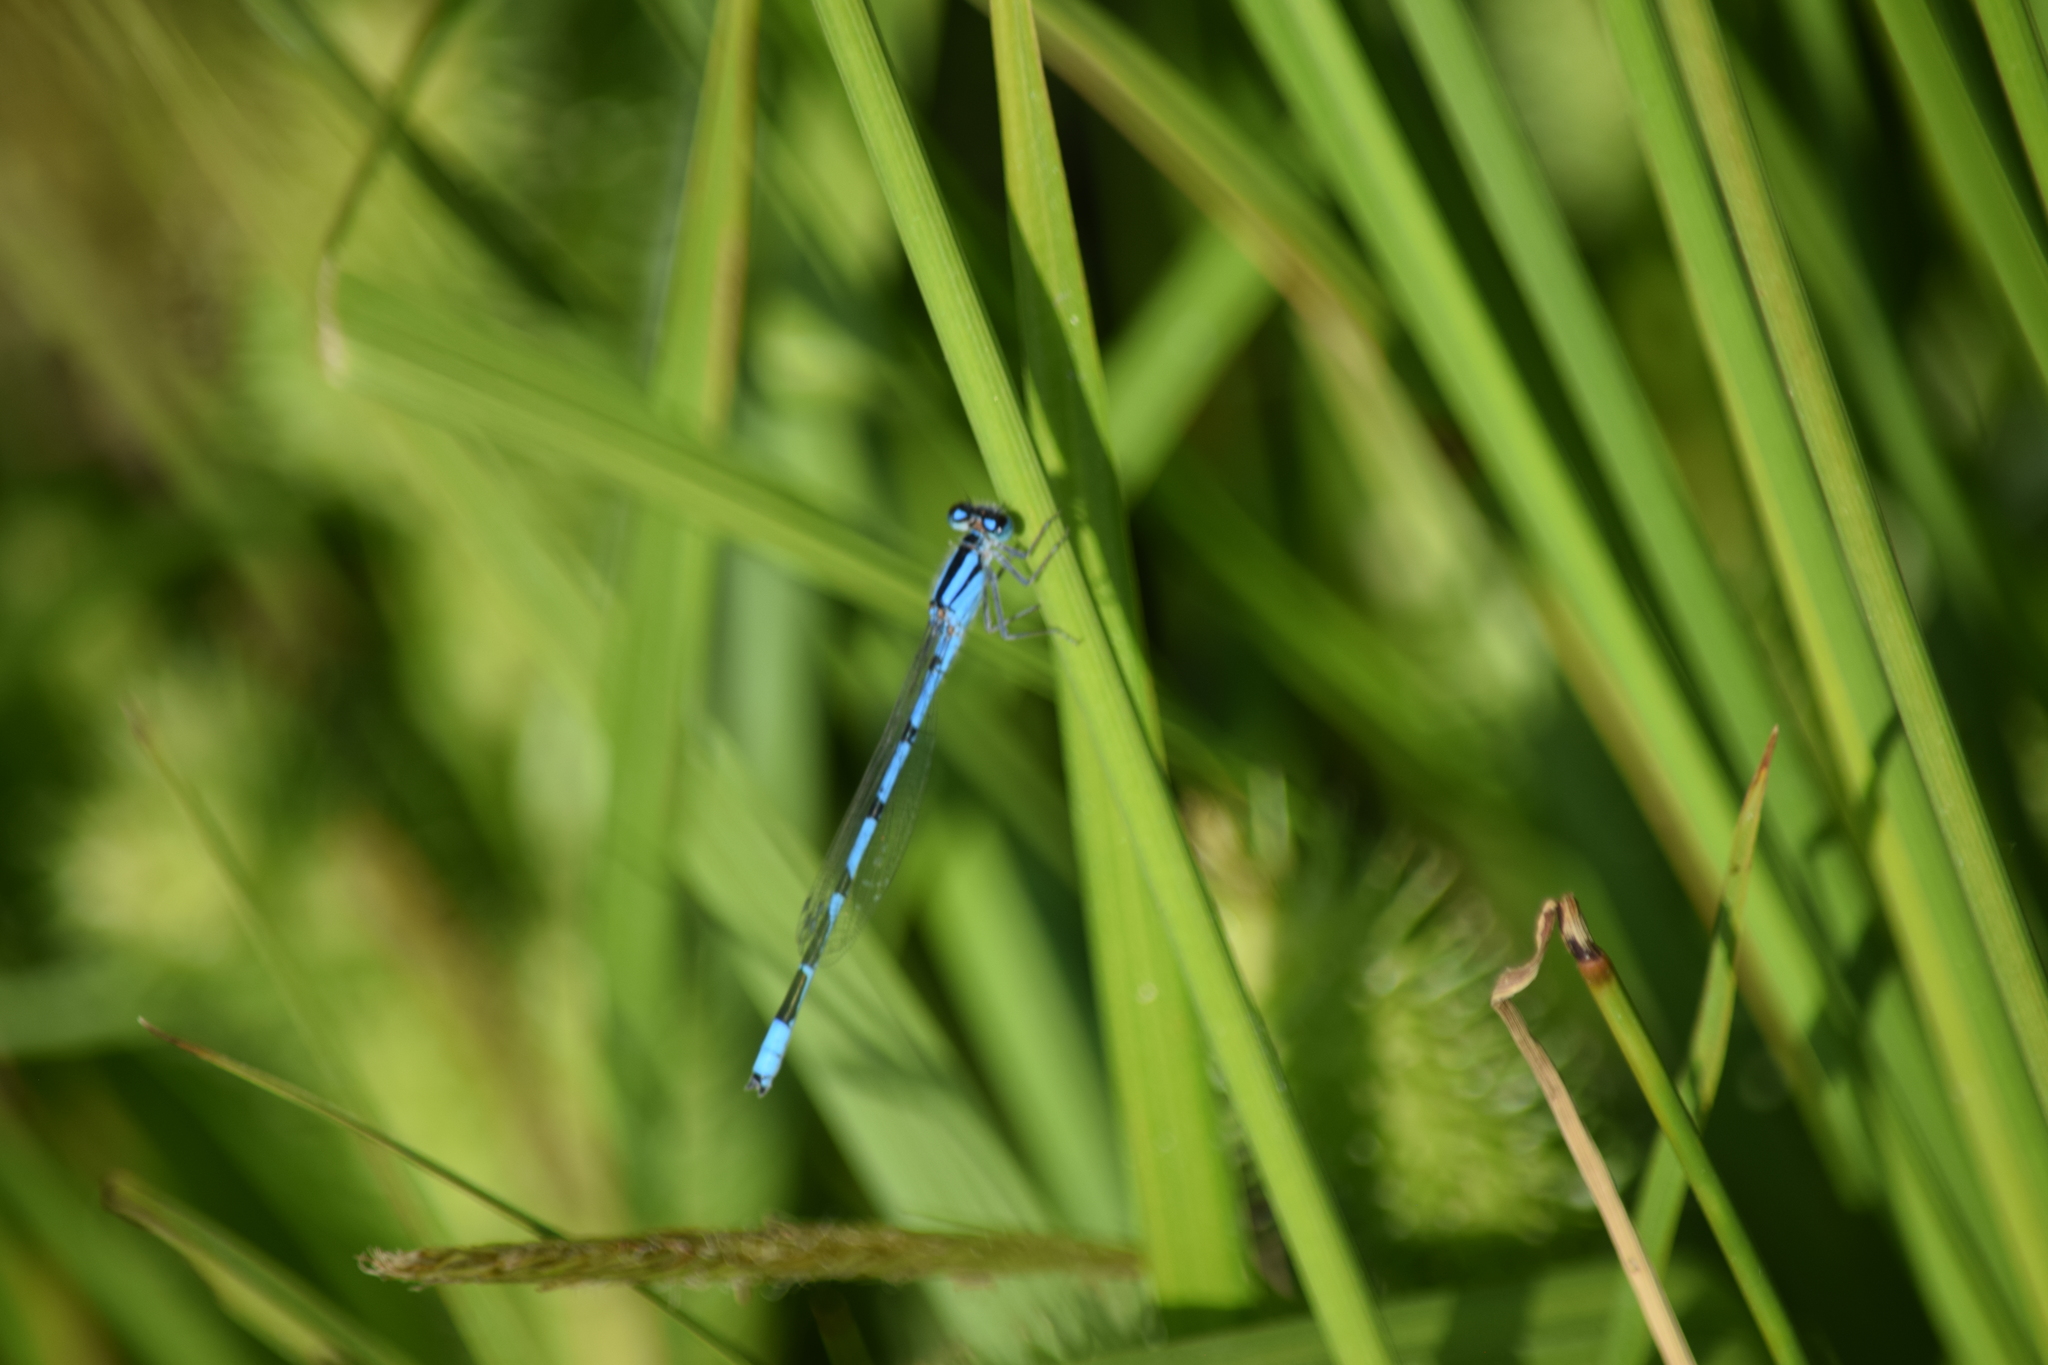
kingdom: Animalia
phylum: Arthropoda
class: Insecta
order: Odonata
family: Coenagrionidae
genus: Enallagma
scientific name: Enallagma civile
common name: Damselfly
